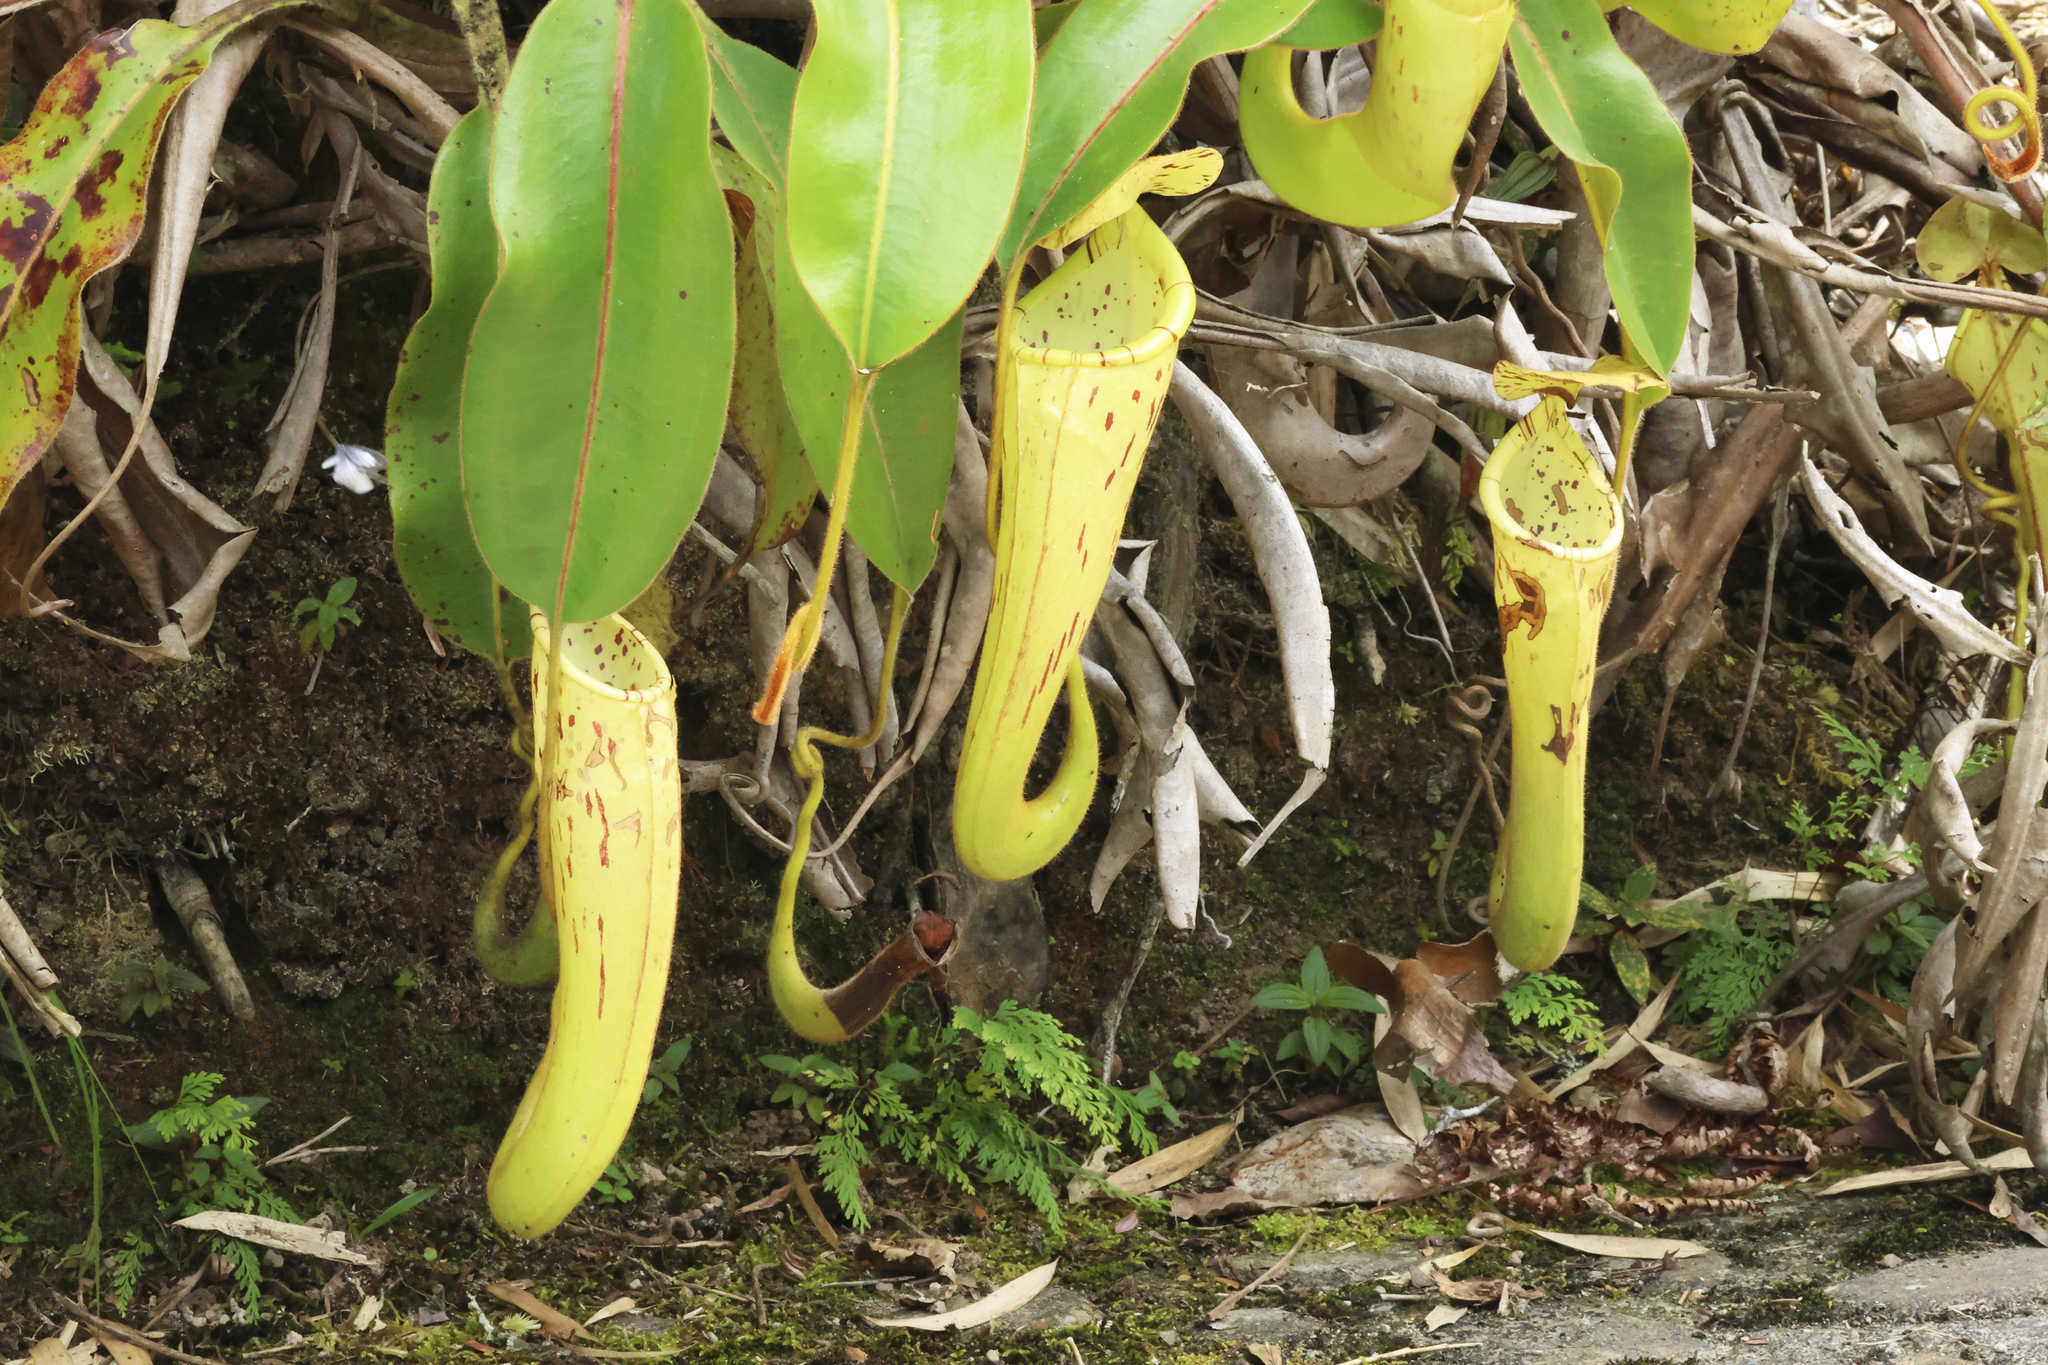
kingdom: Plantae
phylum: Tracheophyta
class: Magnoliopsida
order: Caryophyllales
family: Nepenthaceae
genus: Nepenthes
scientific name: Nepenthes chaniana
